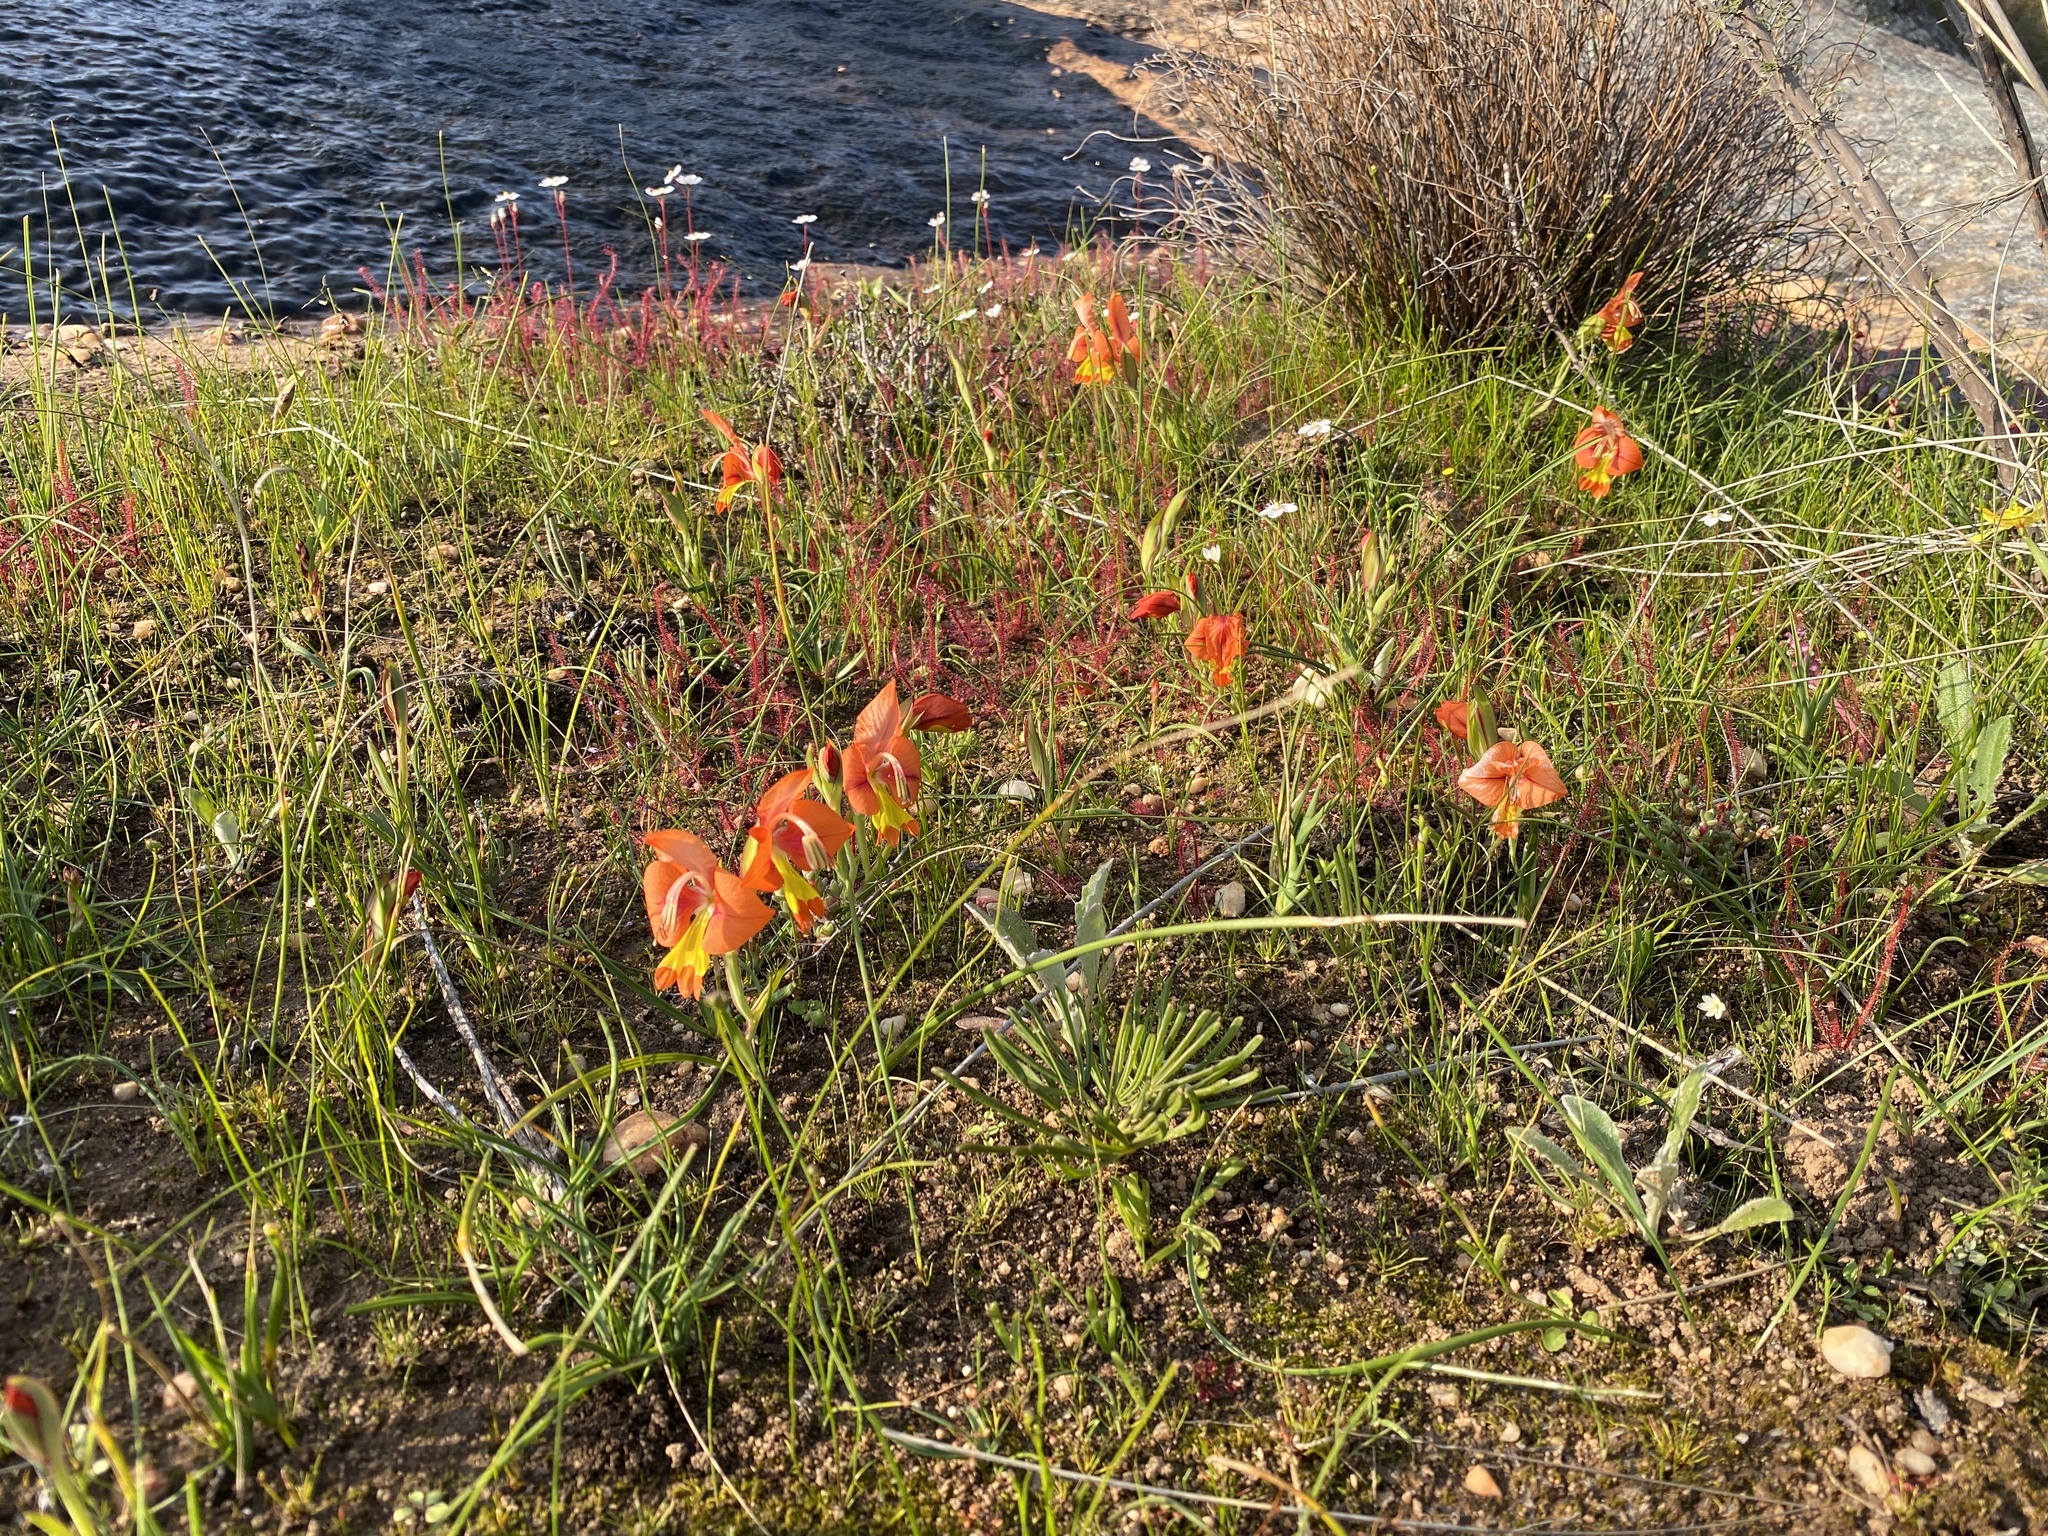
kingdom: Plantae
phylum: Tracheophyta
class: Liliopsida
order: Asparagales
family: Iridaceae
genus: Gladiolus
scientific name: Gladiolus alatus
